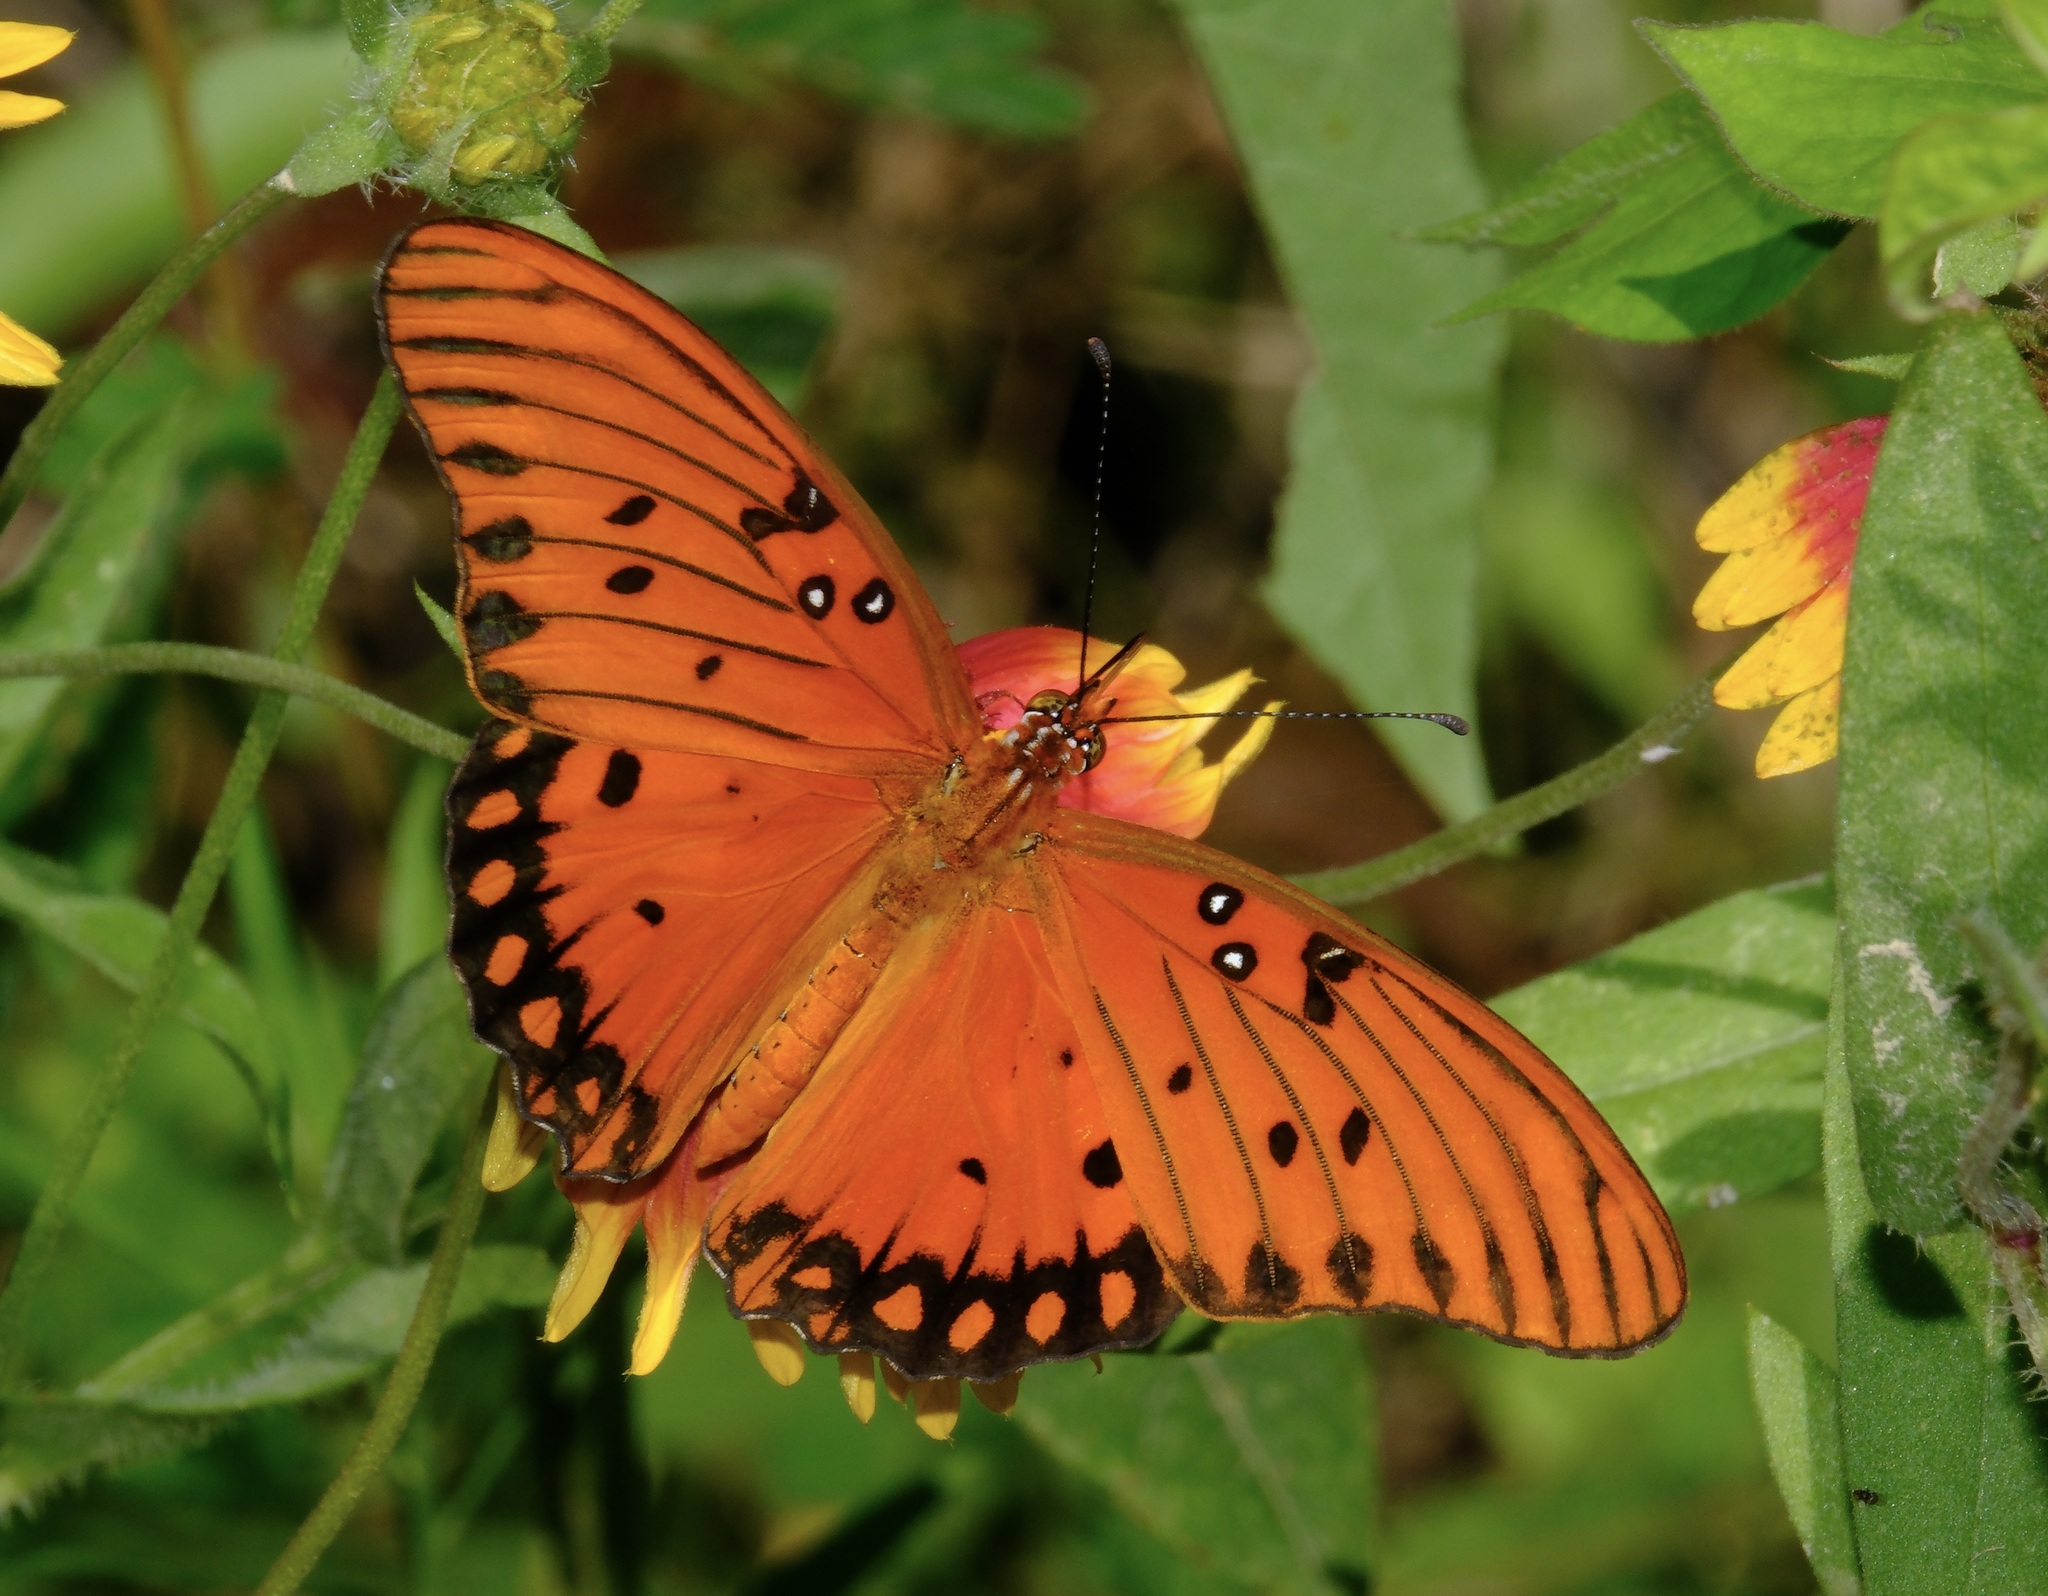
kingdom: Animalia
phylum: Arthropoda
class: Insecta
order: Lepidoptera
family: Nymphalidae
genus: Dione
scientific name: Dione vanillae
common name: Gulf fritillary
